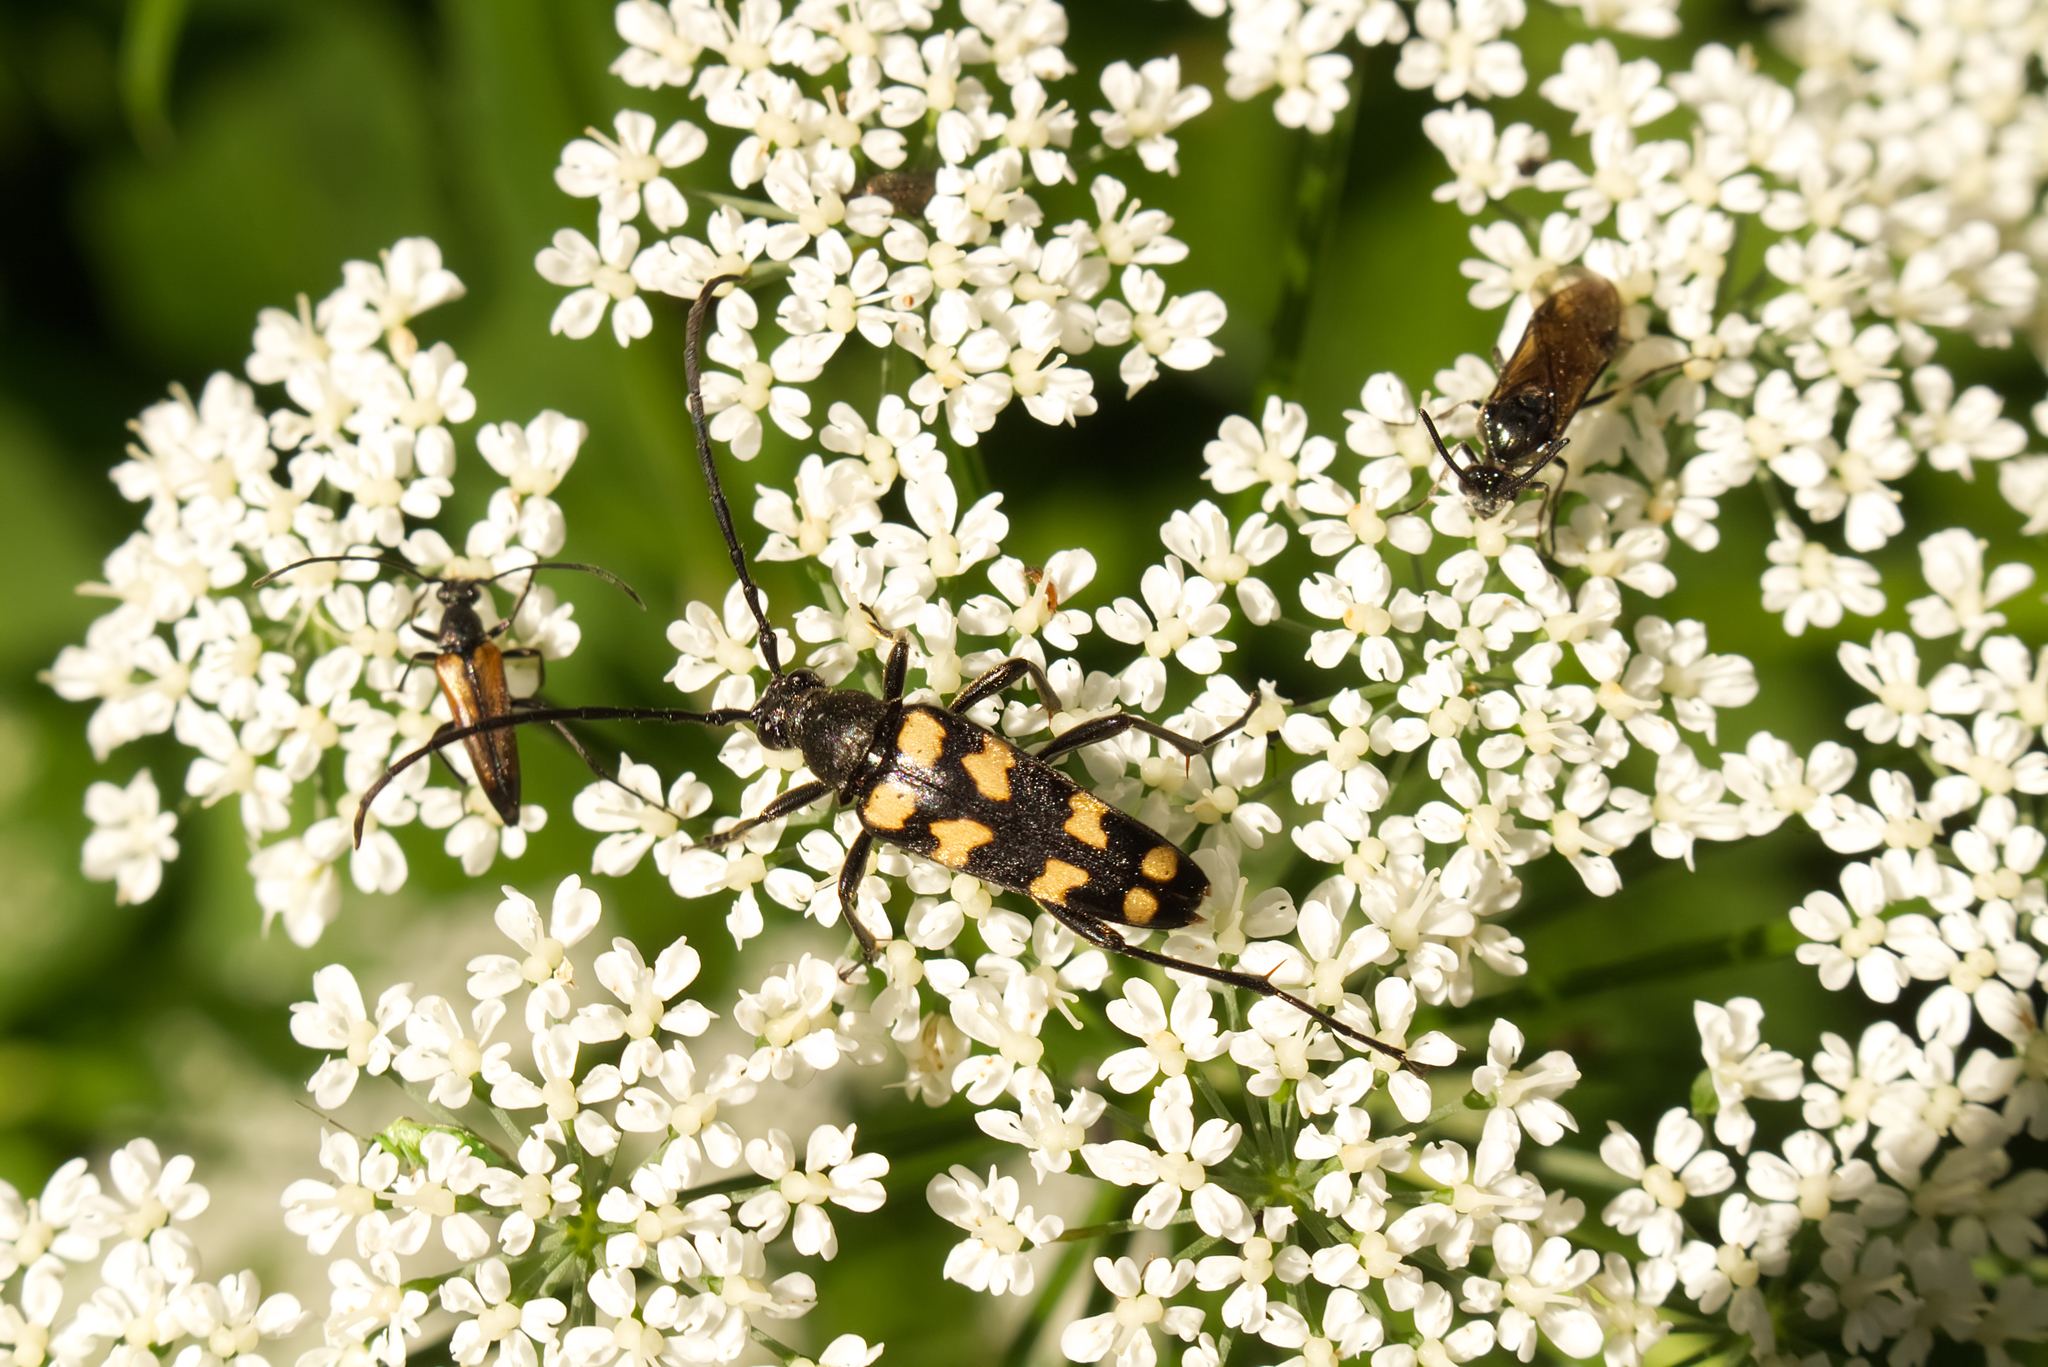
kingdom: Animalia
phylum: Arthropoda
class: Insecta
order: Coleoptera
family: Cerambycidae
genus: Leptura
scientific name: Leptura quadrifasciata
